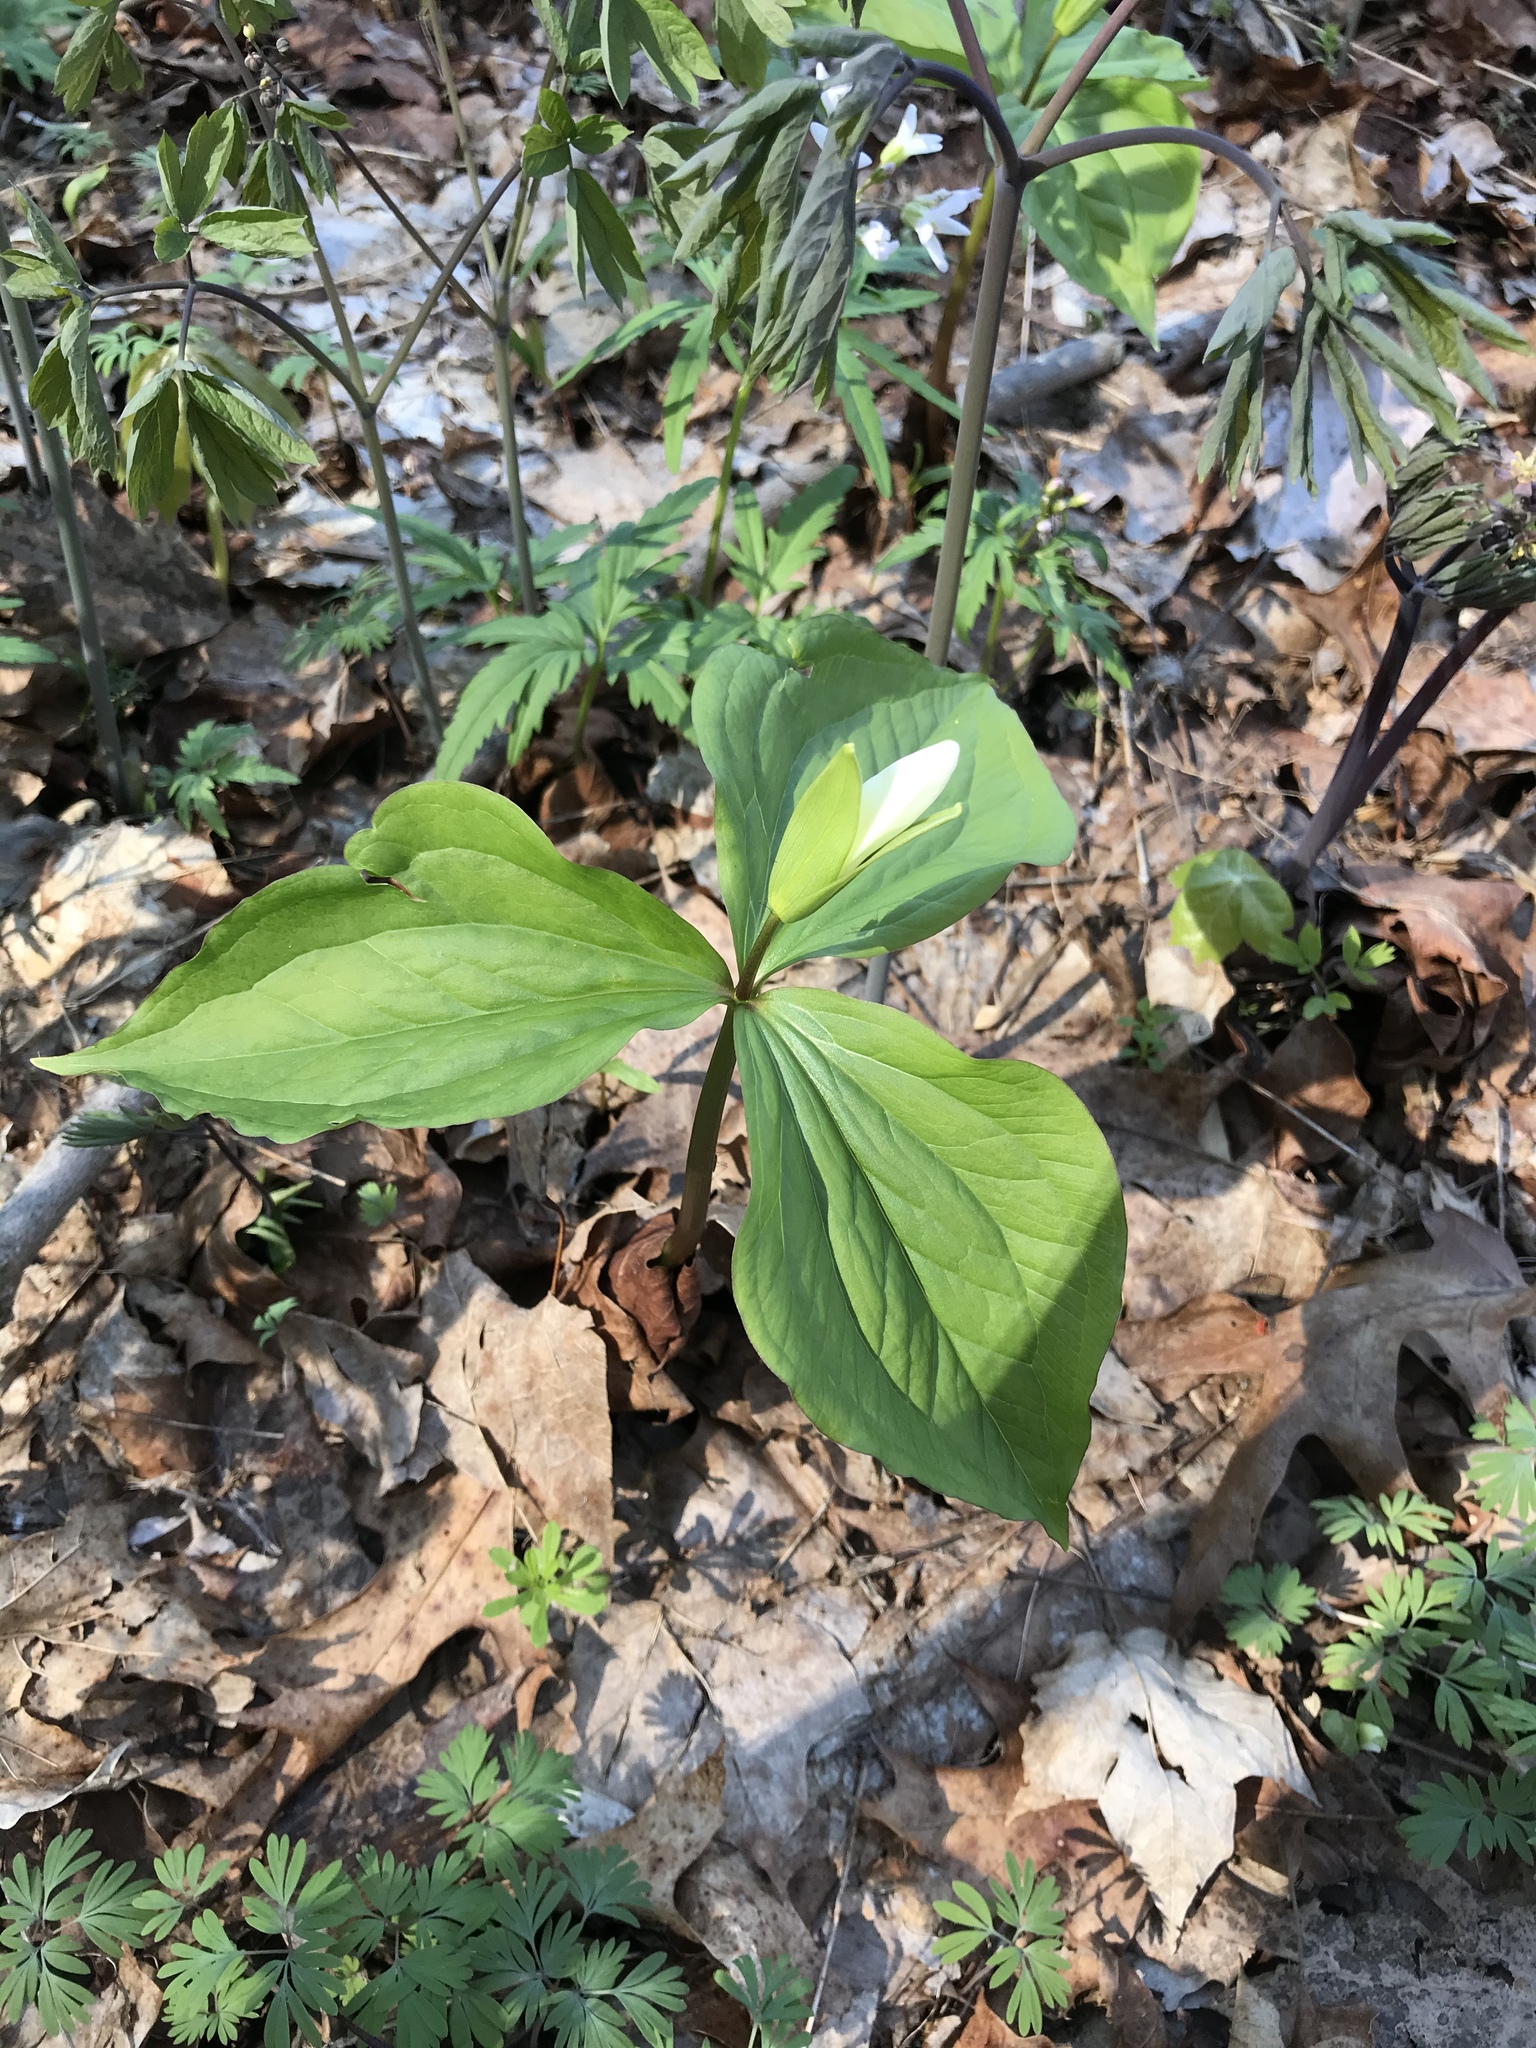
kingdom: Plantae
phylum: Tracheophyta
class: Liliopsida
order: Liliales
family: Melanthiaceae
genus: Trillium
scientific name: Trillium grandiflorum
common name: Great white trillium
